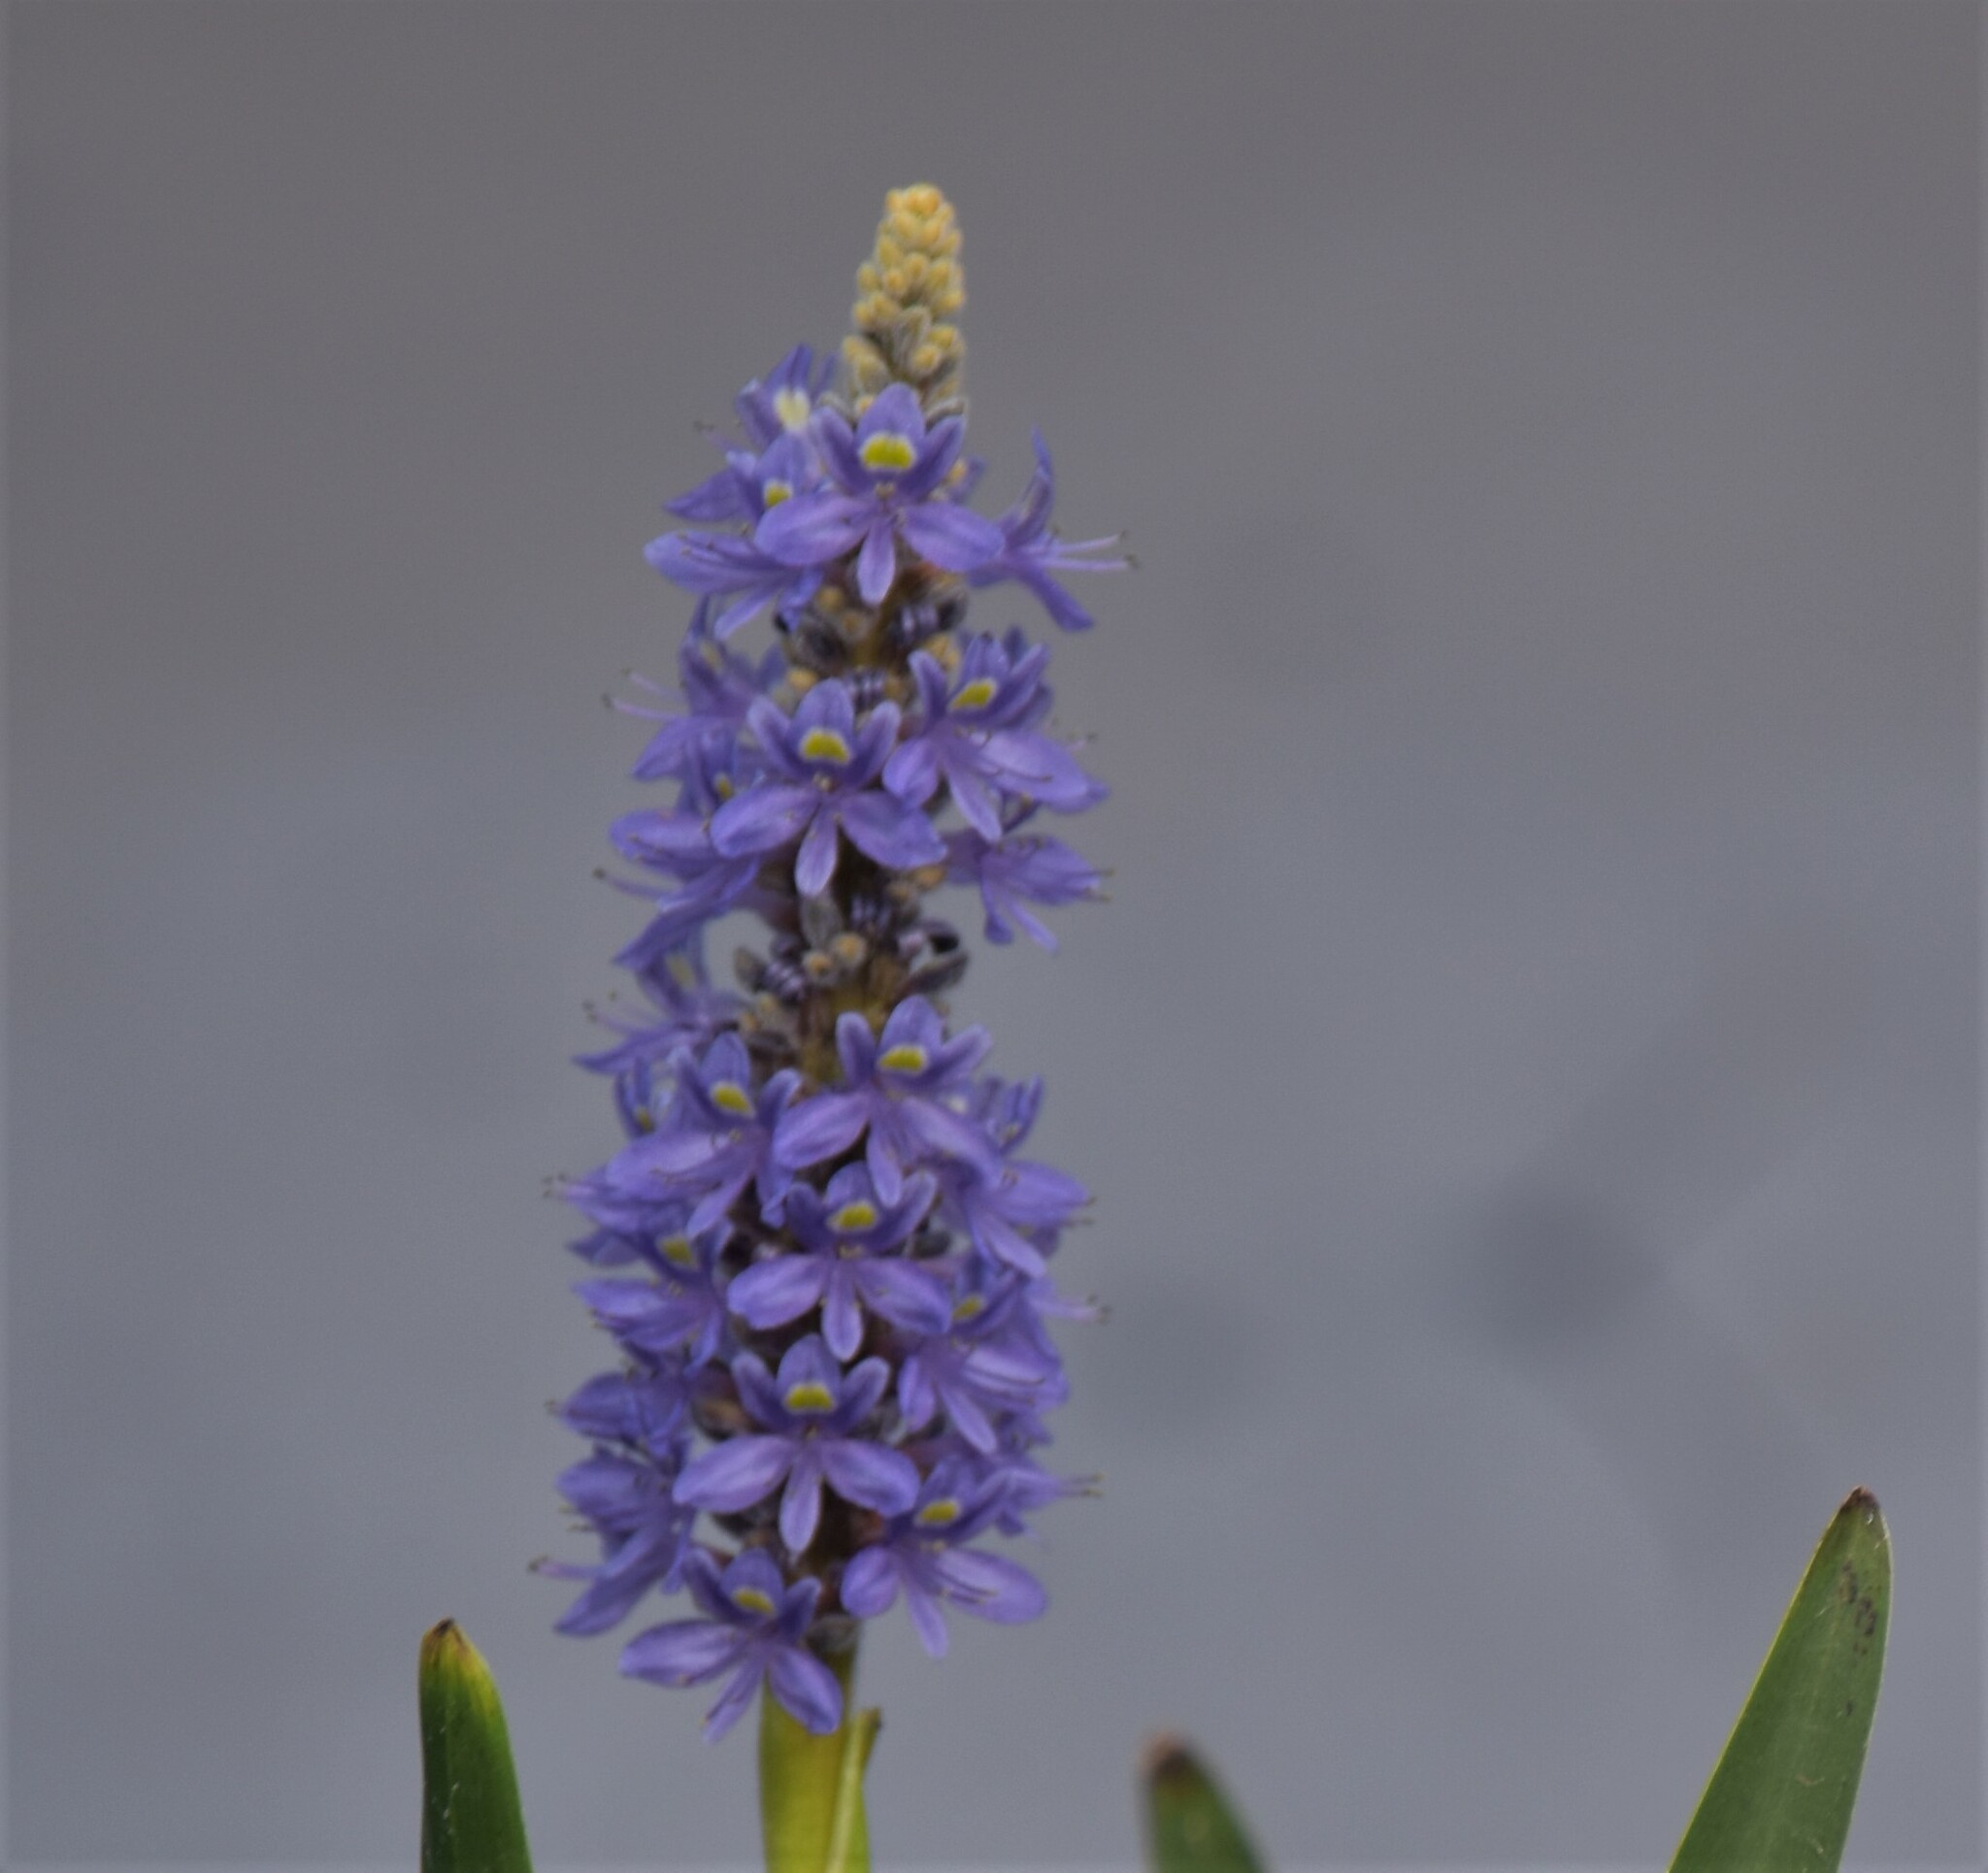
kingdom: Plantae
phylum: Tracheophyta
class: Liliopsida
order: Commelinales
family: Pontederiaceae
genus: Pontederia
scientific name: Pontederia cordata
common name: Pickerelweed
